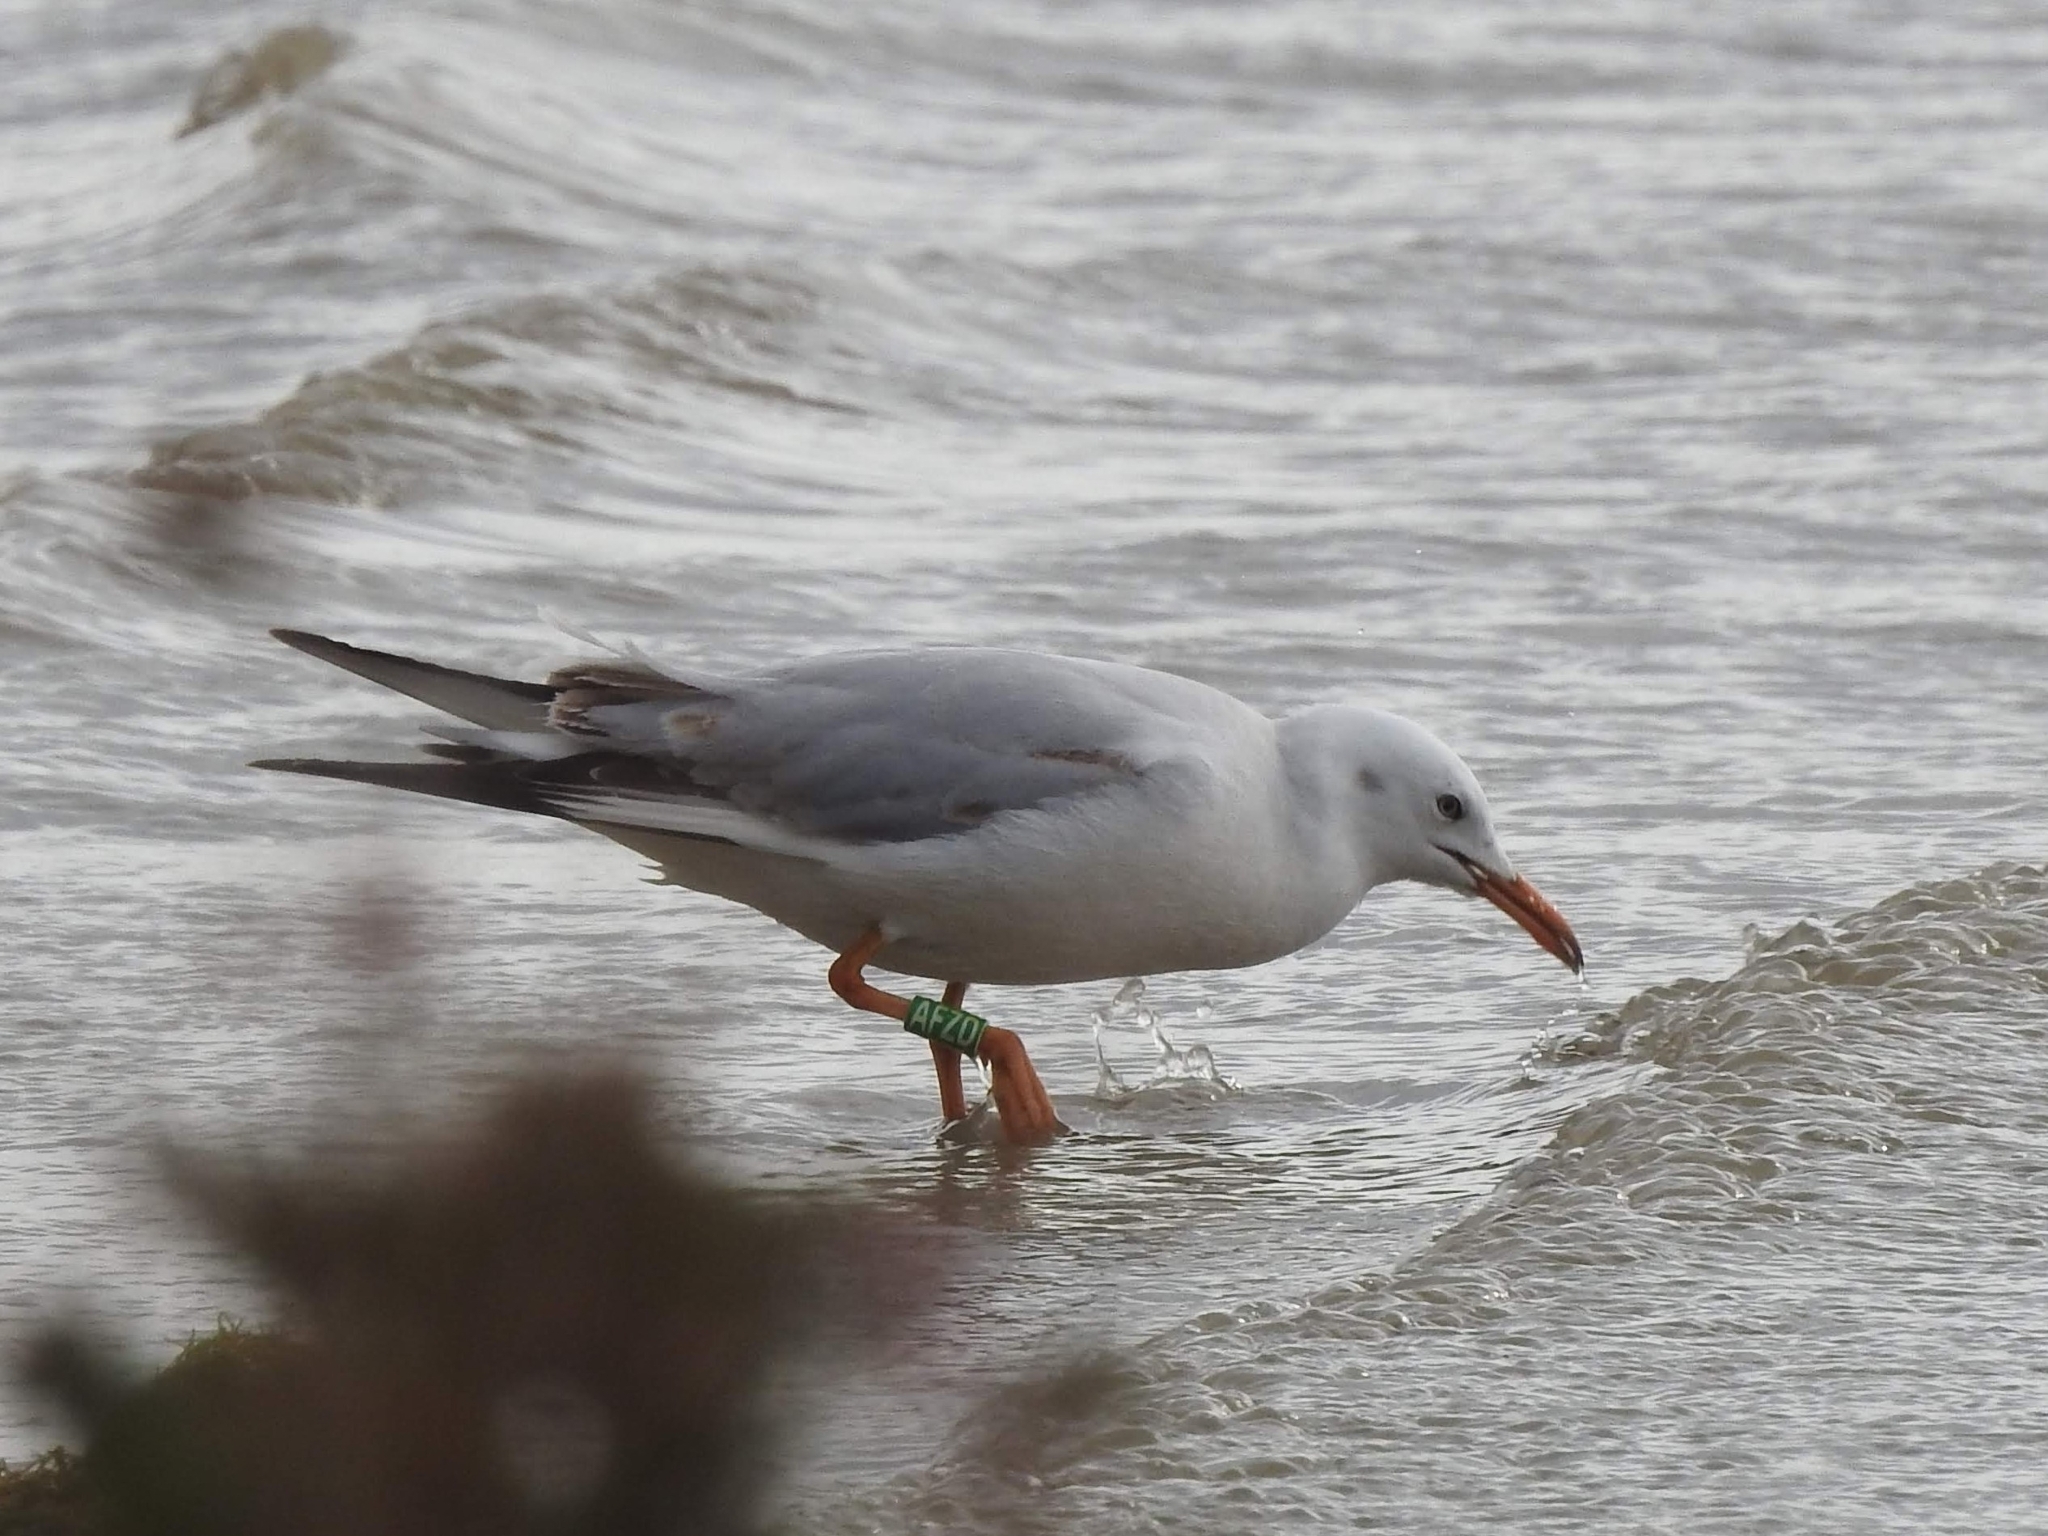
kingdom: Animalia
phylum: Chordata
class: Aves
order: Charadriiformes
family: Laridae
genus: Chroicocephalus
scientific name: Chroicocephalus genei
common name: Slender-billed gull
